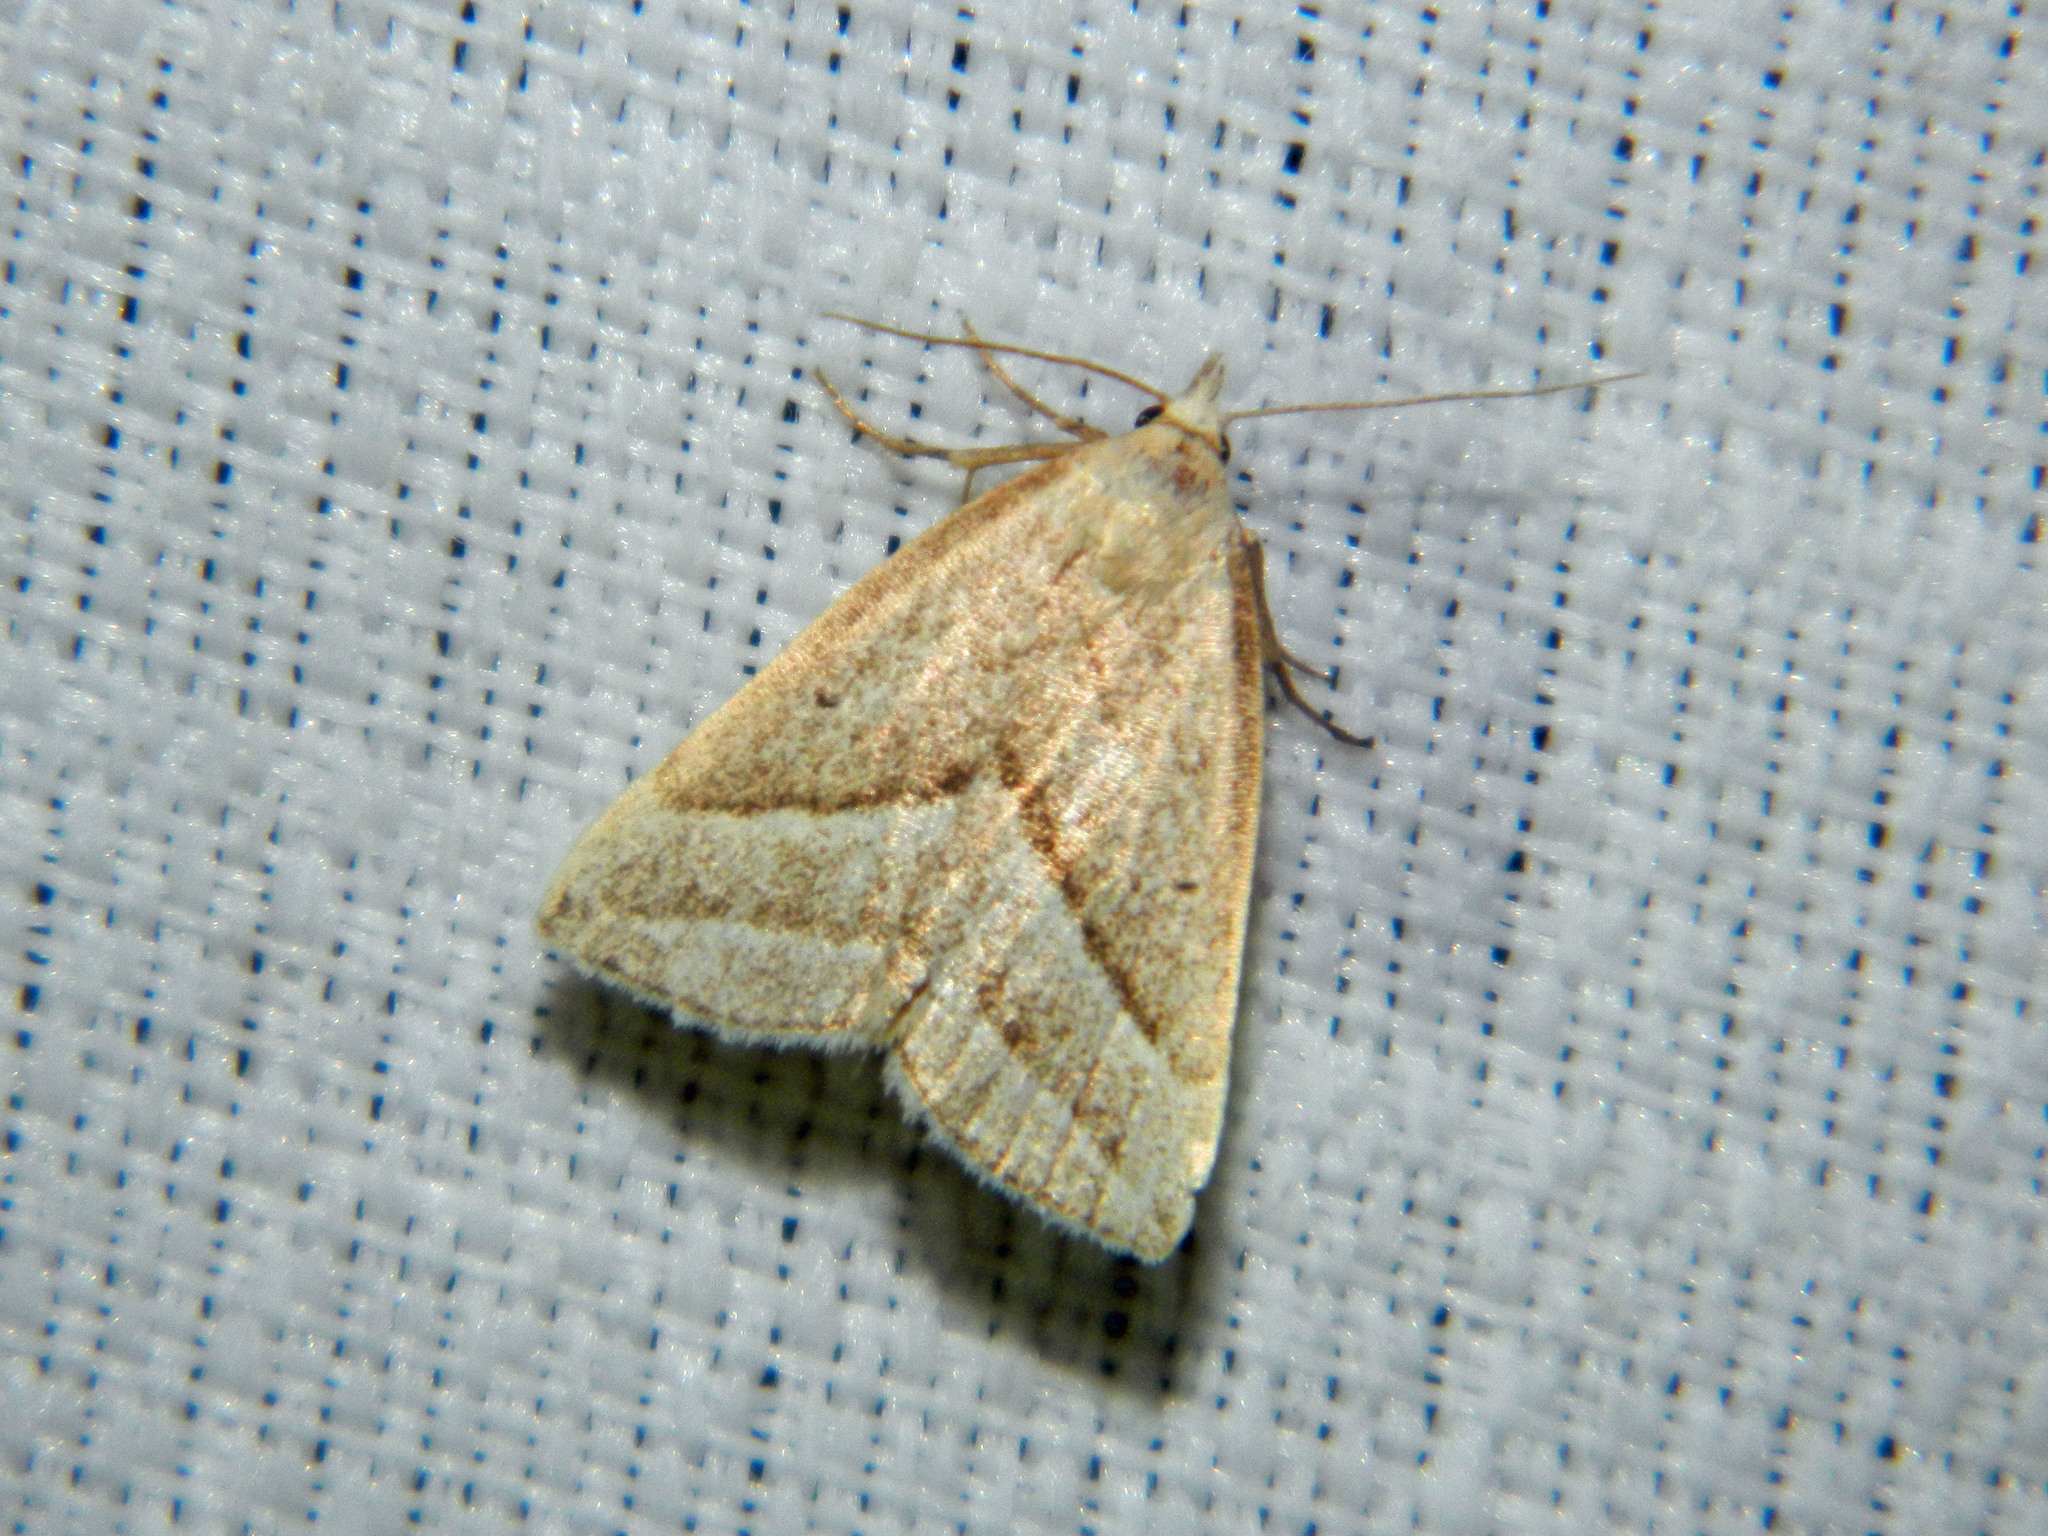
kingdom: Animalia
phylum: Arthropoda
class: Insecta
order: Lepidoptera
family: Erebidae
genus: Macrochilo
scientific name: Macrochilo absorptalis
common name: Slant-lined owlet
